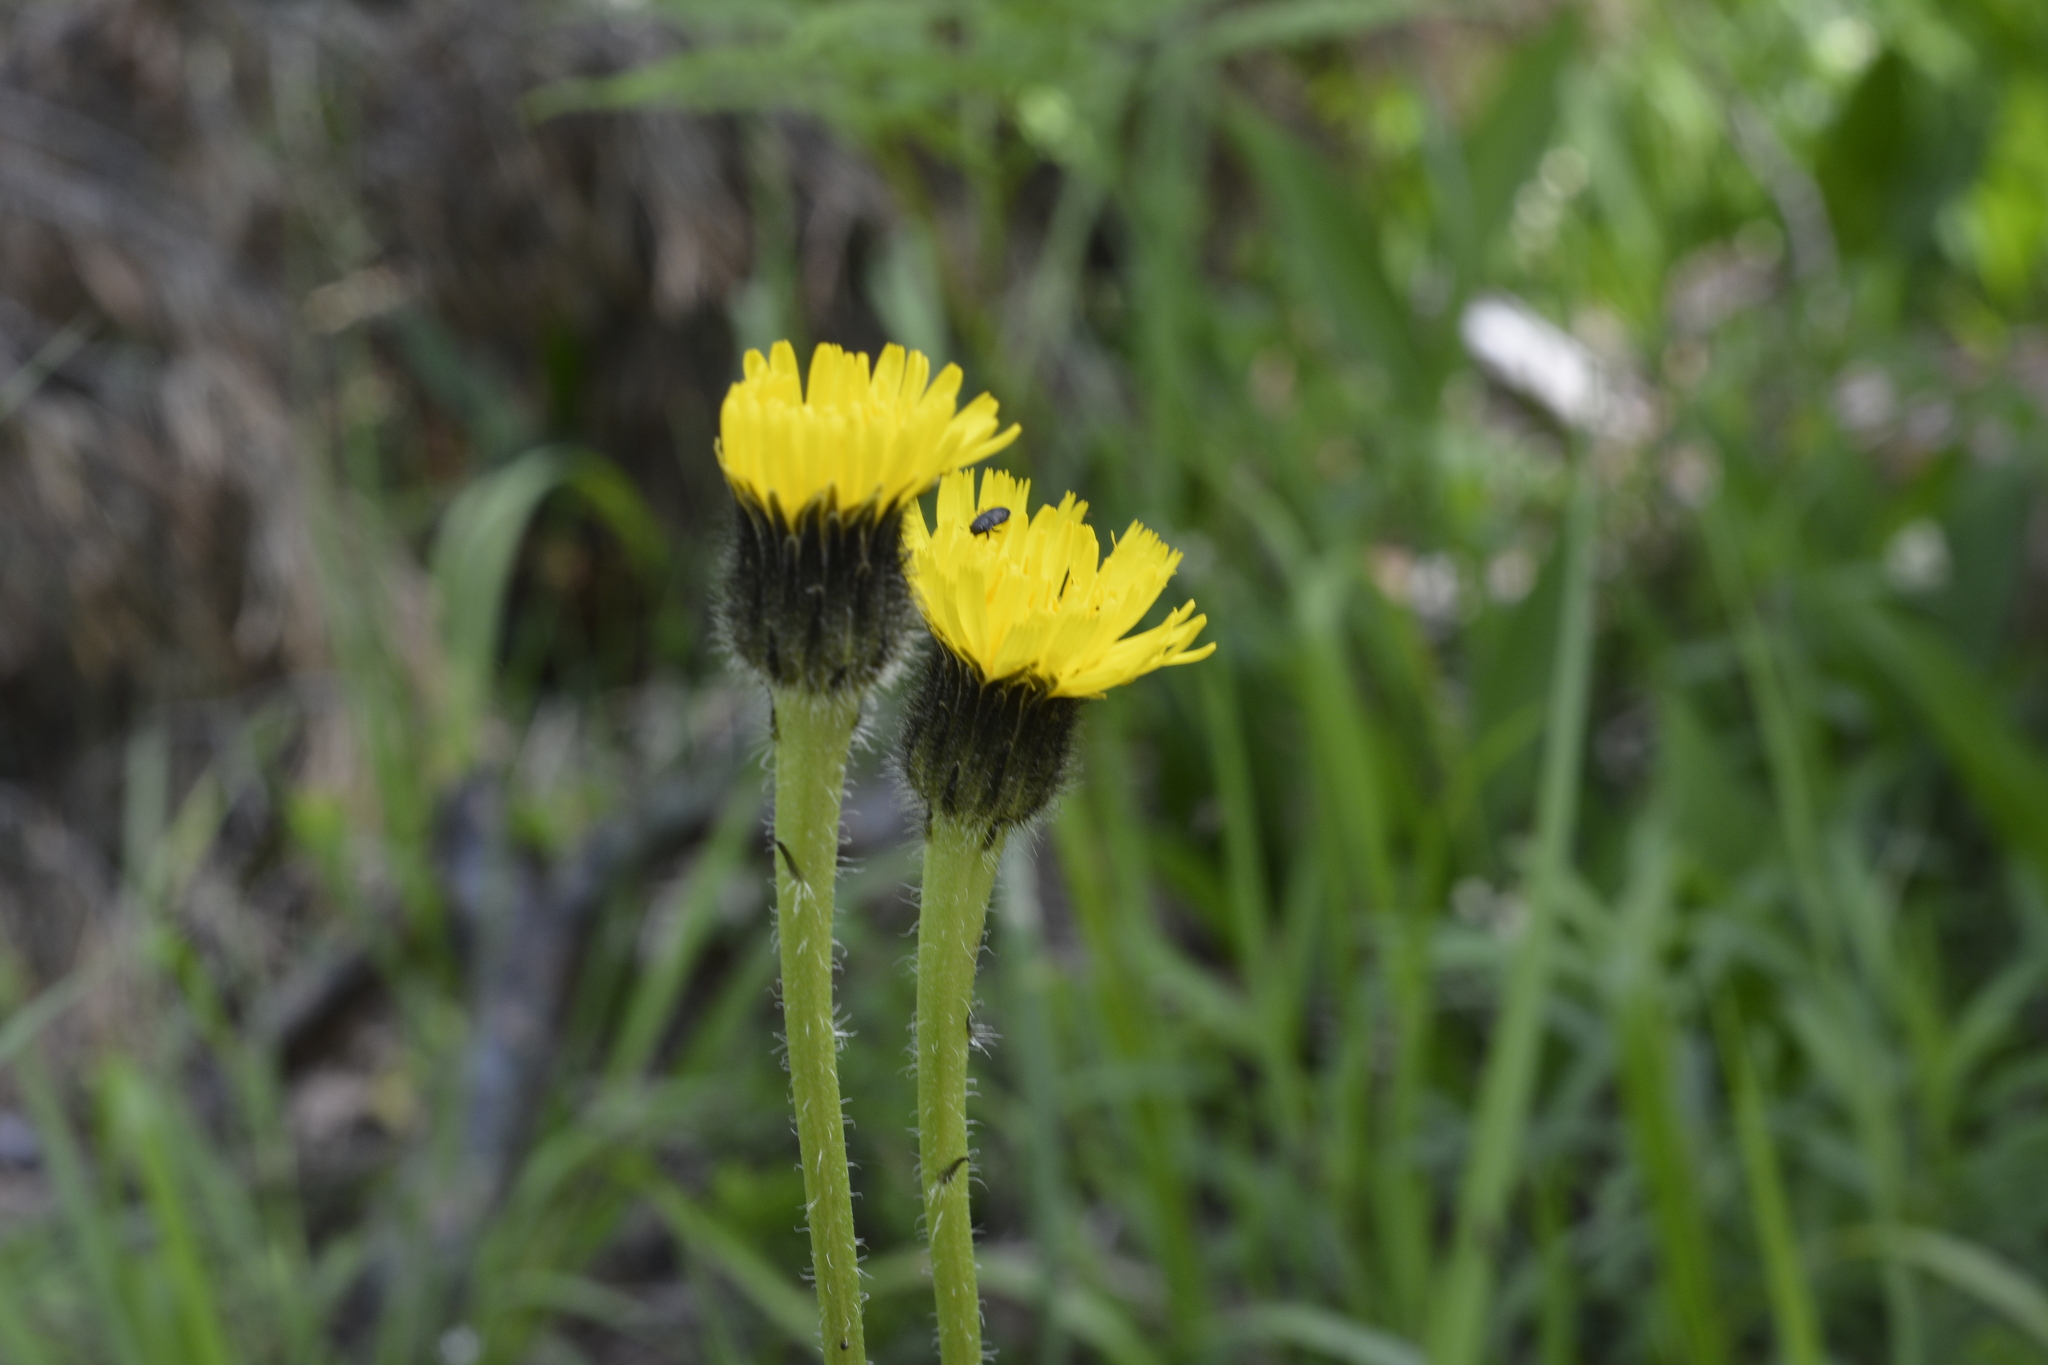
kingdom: Plantae
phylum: Tracheophyta
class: Magnoliopsida
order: Asterales
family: Asteraceae
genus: Trommsdorffia
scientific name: Trommsdorffia maculata
